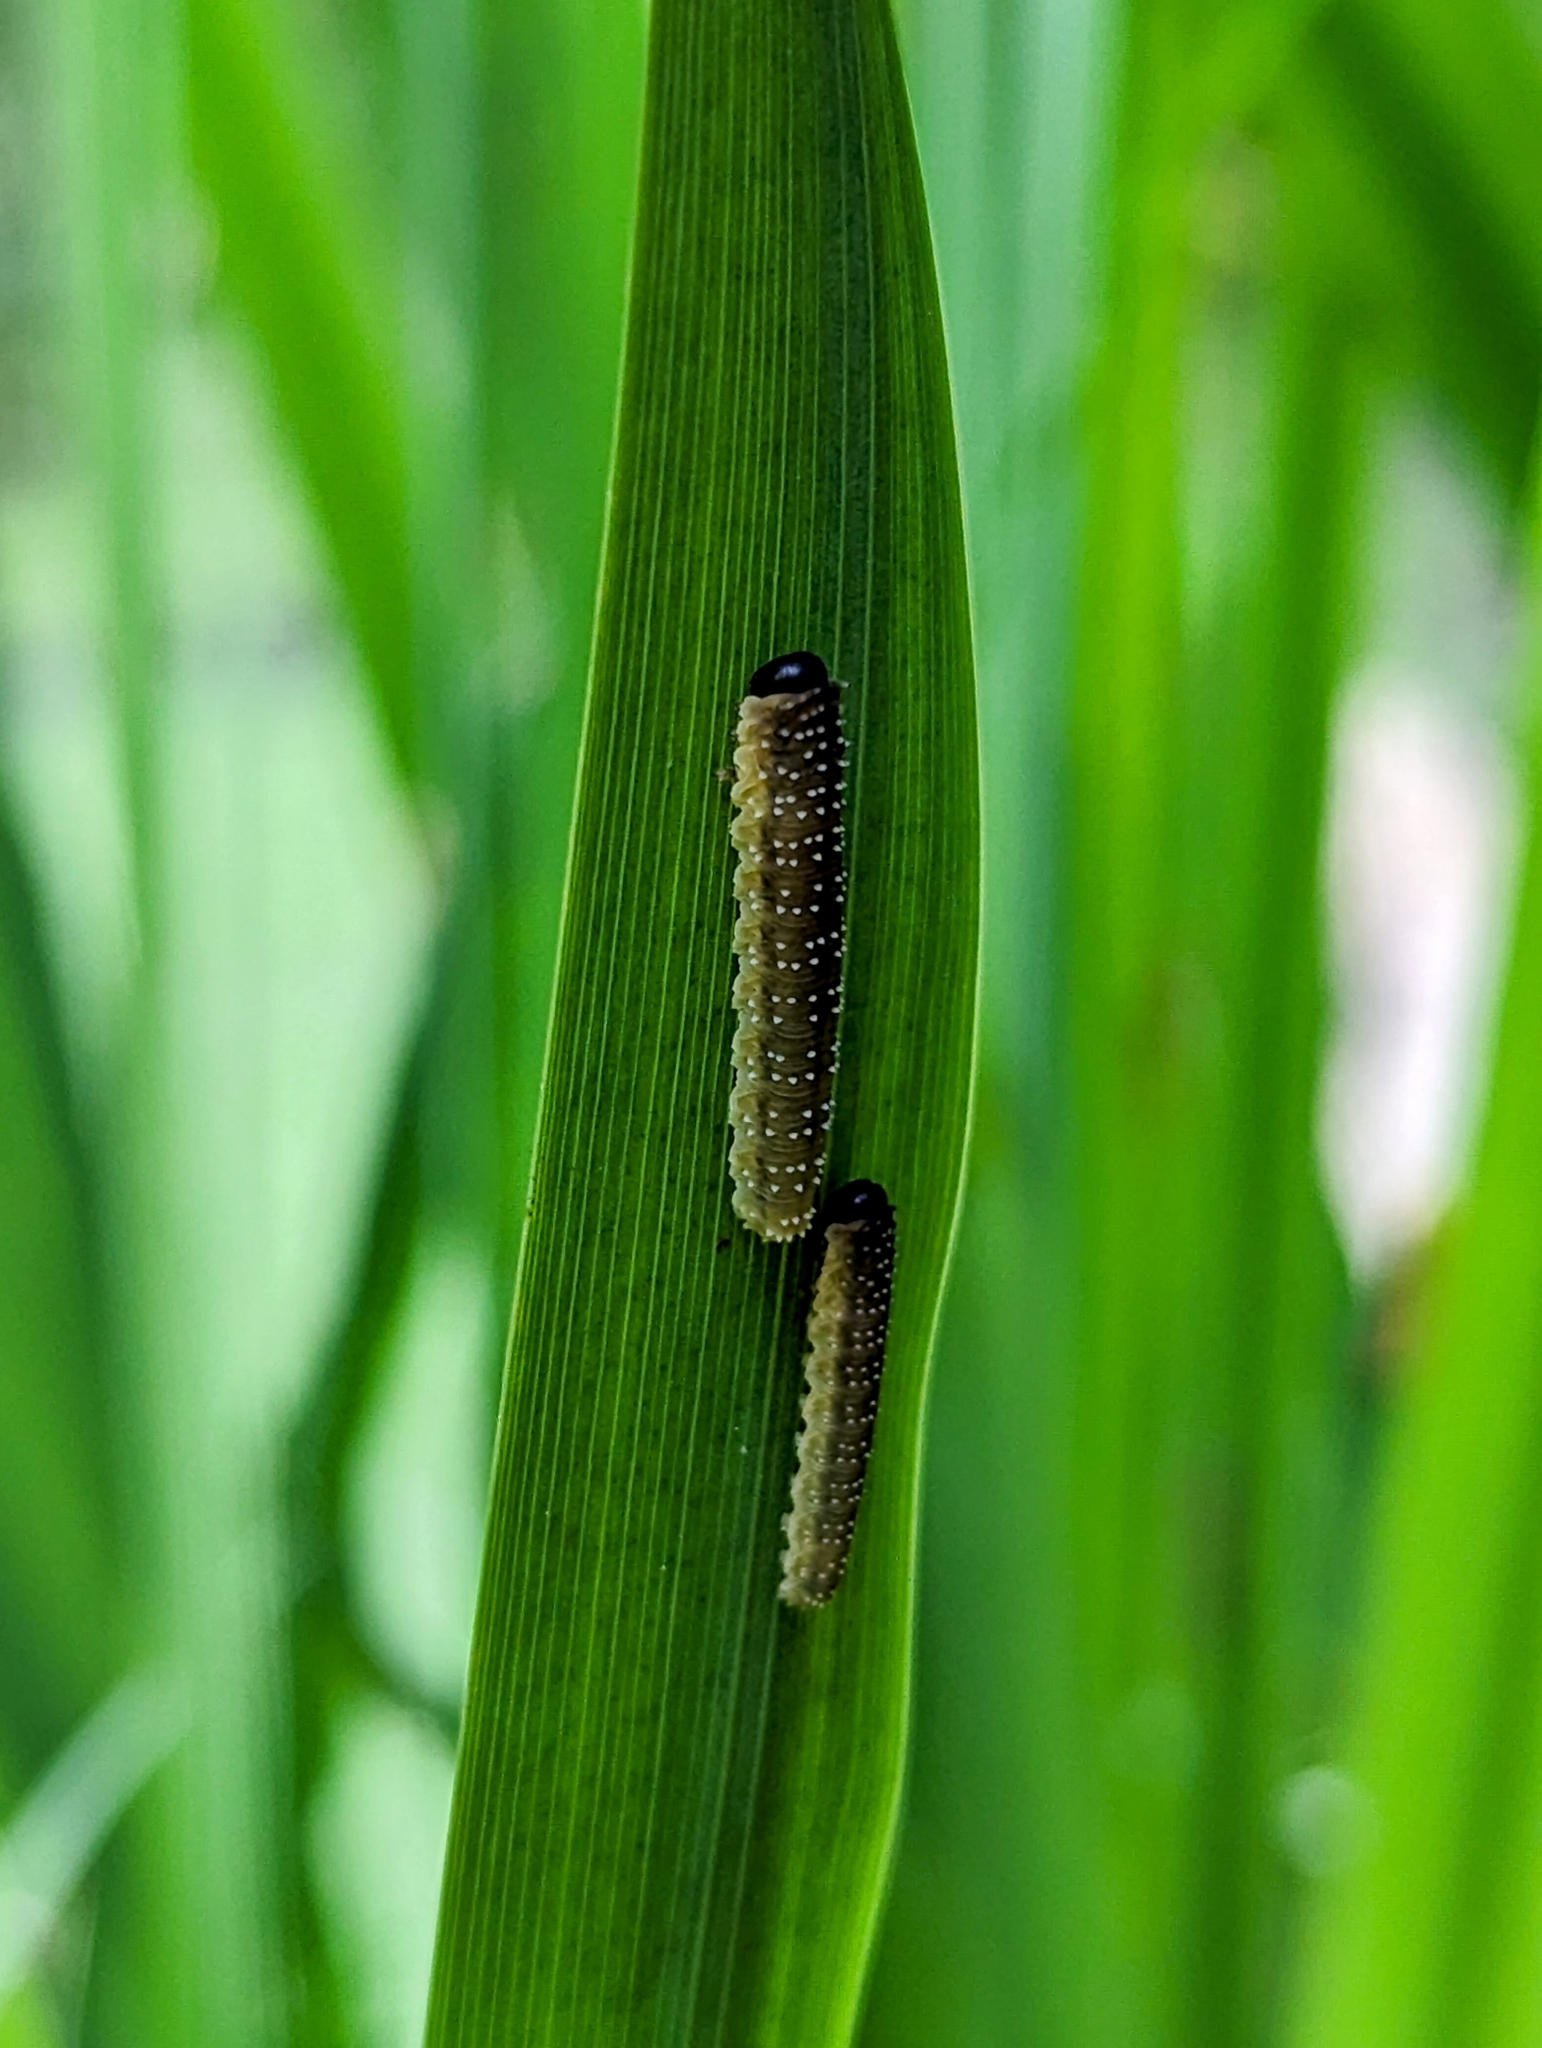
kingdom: Animalia
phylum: Arthropoda
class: Insecta
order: Hymenoptera
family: Tenthredinidae
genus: Rhadinoceraea
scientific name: Rhadinoceraea micans
